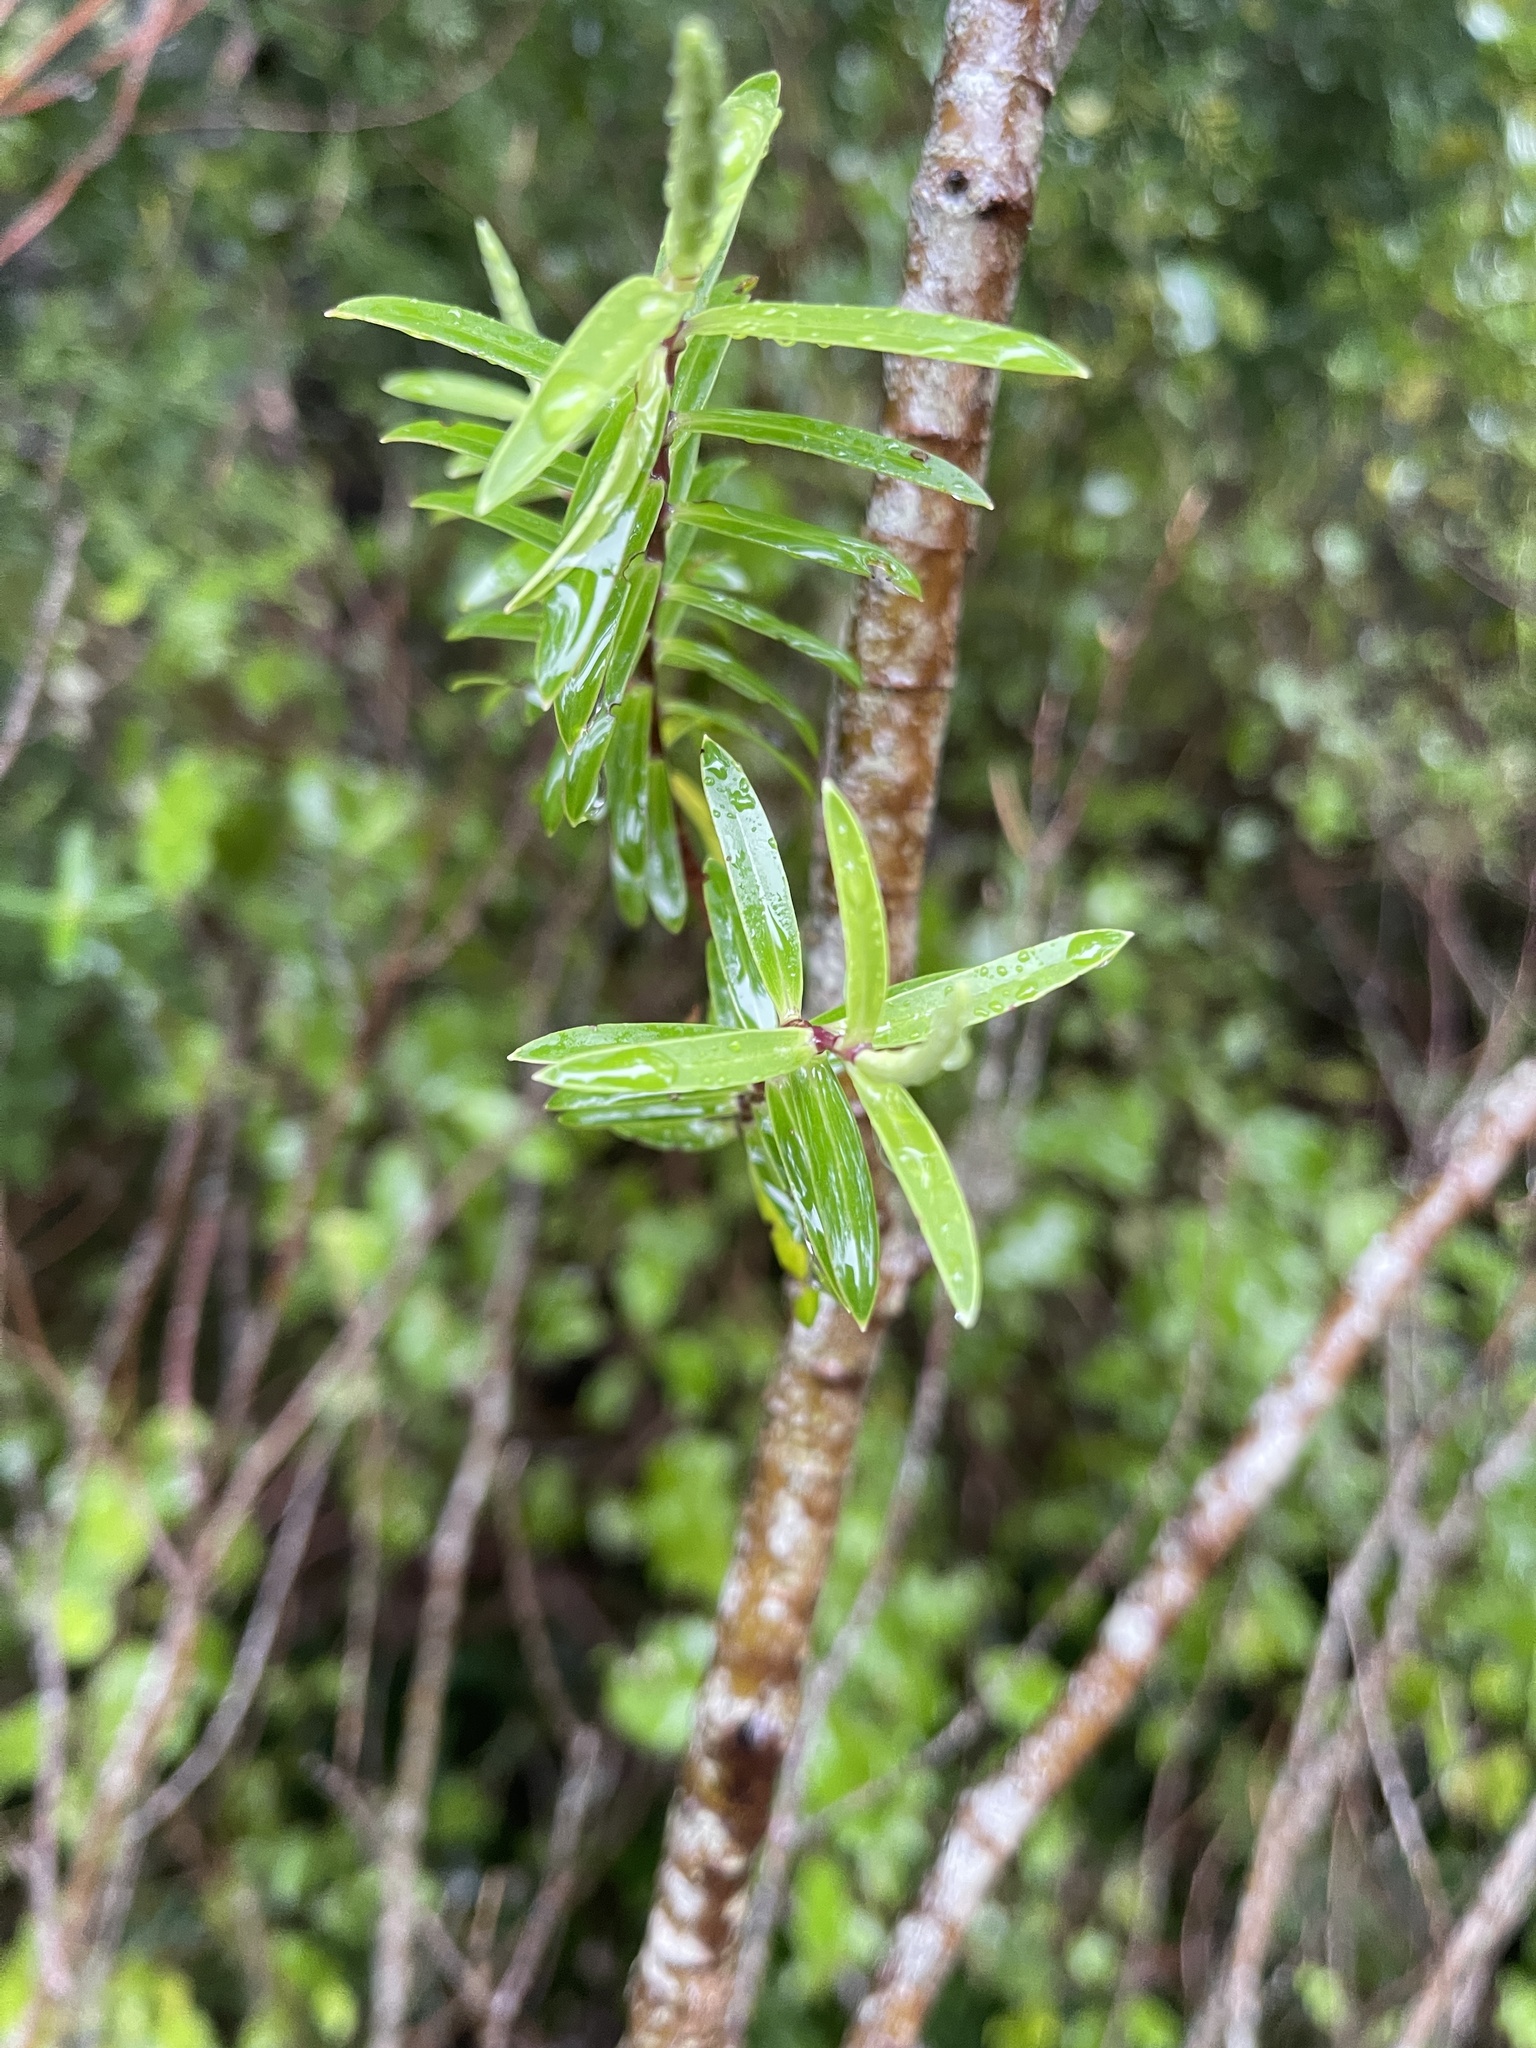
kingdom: Plantae
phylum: Tracheophyta
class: Magnoliopsida
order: Lamiales
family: Plantaginaceae
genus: Veronica
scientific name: Veronica strictissima
